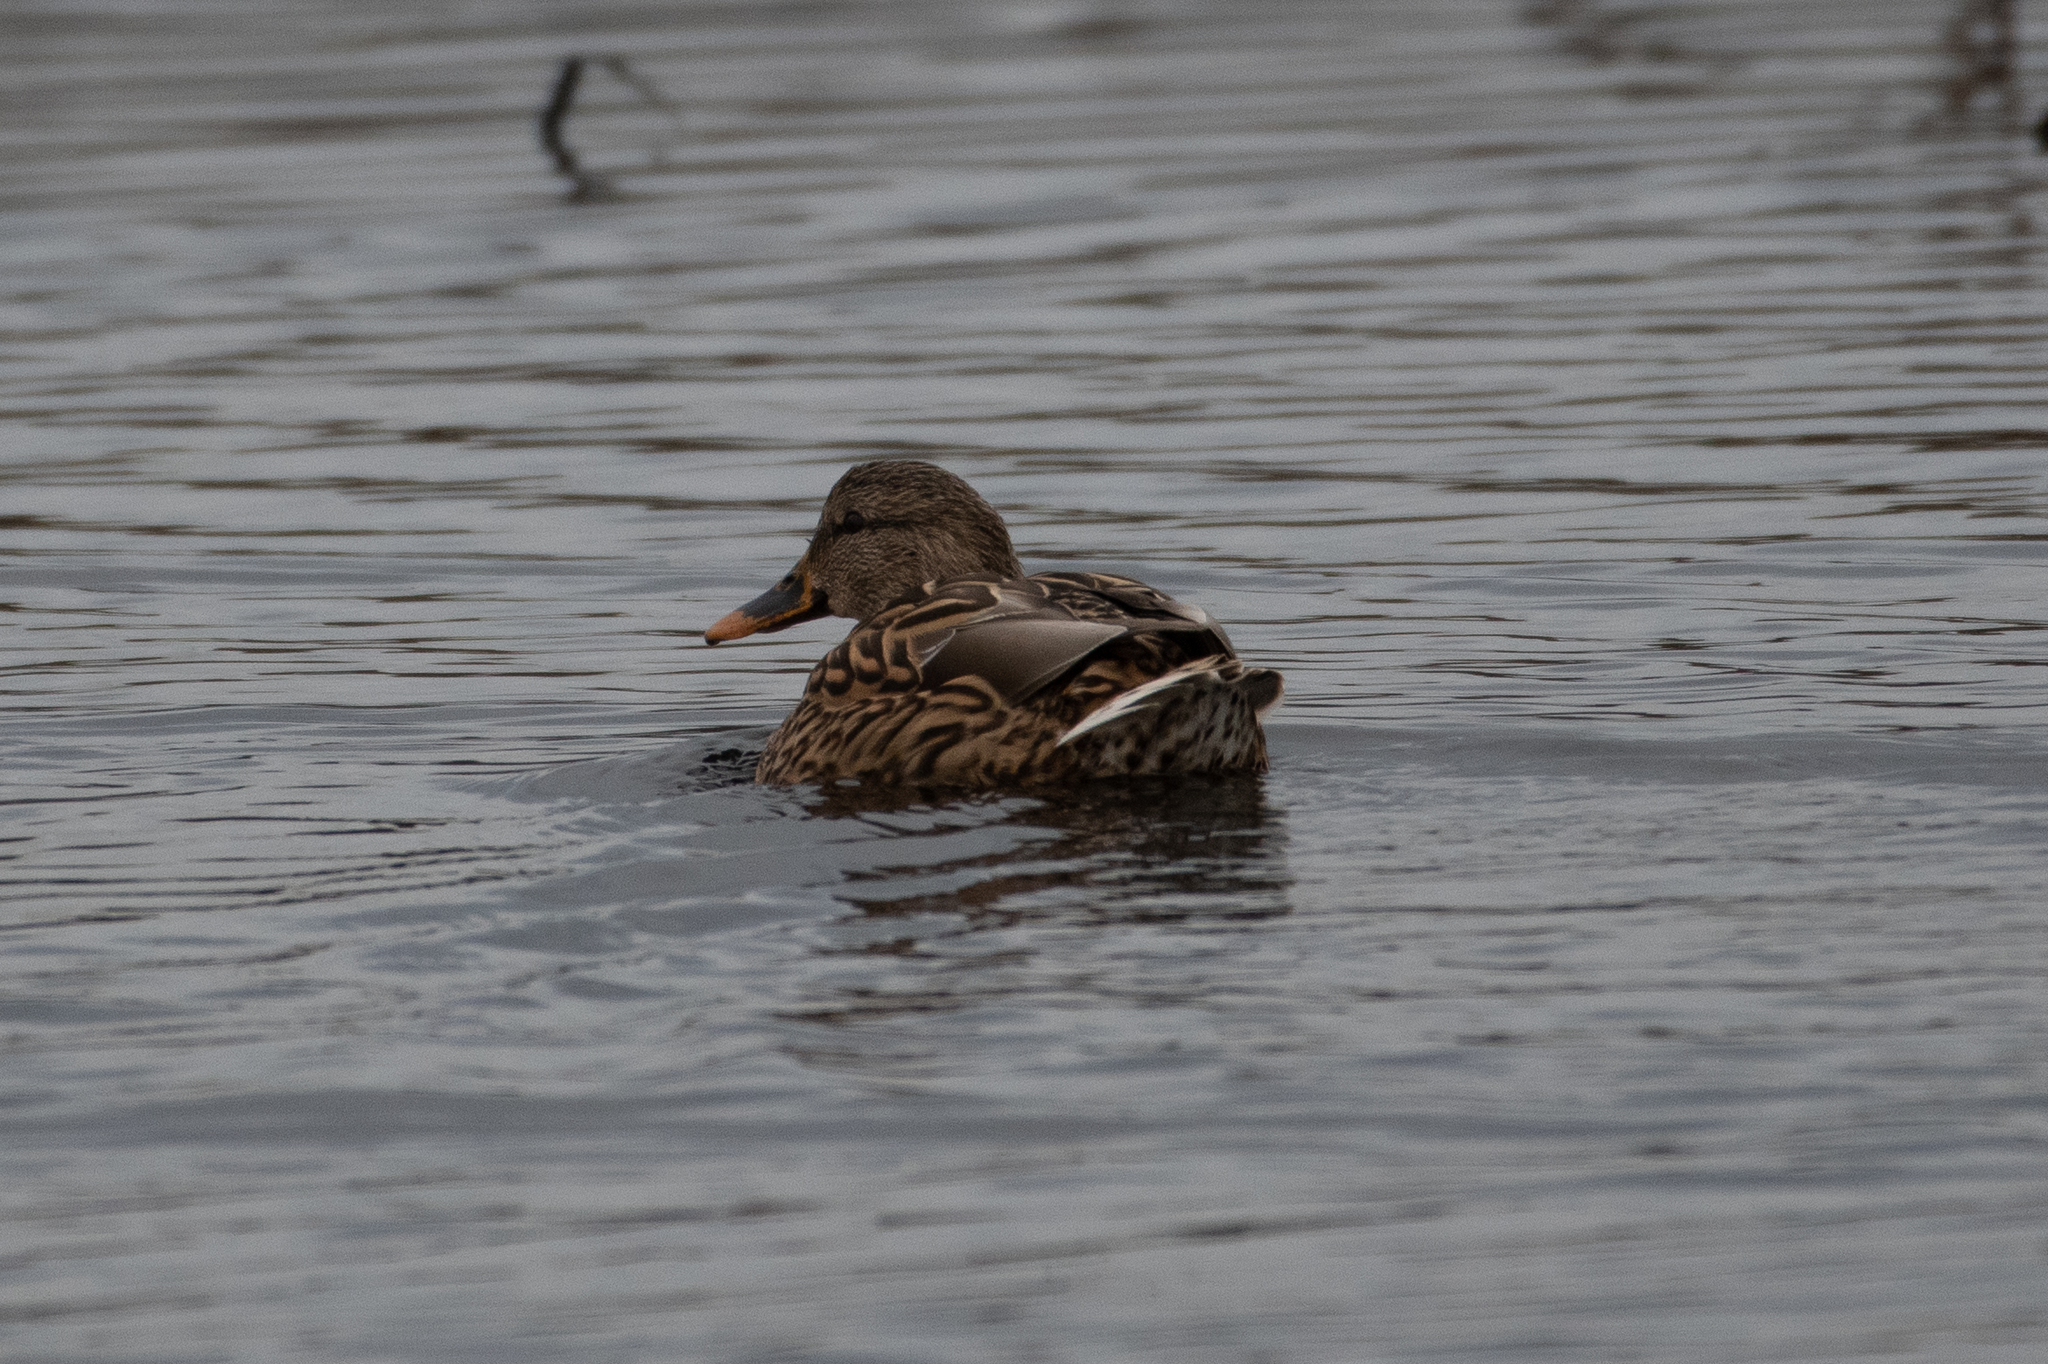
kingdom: Animalia
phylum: Chordata
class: Aves
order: Anseriformes
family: Anatidae
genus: Anas
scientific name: Anas platyrhynchos
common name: Mallard
